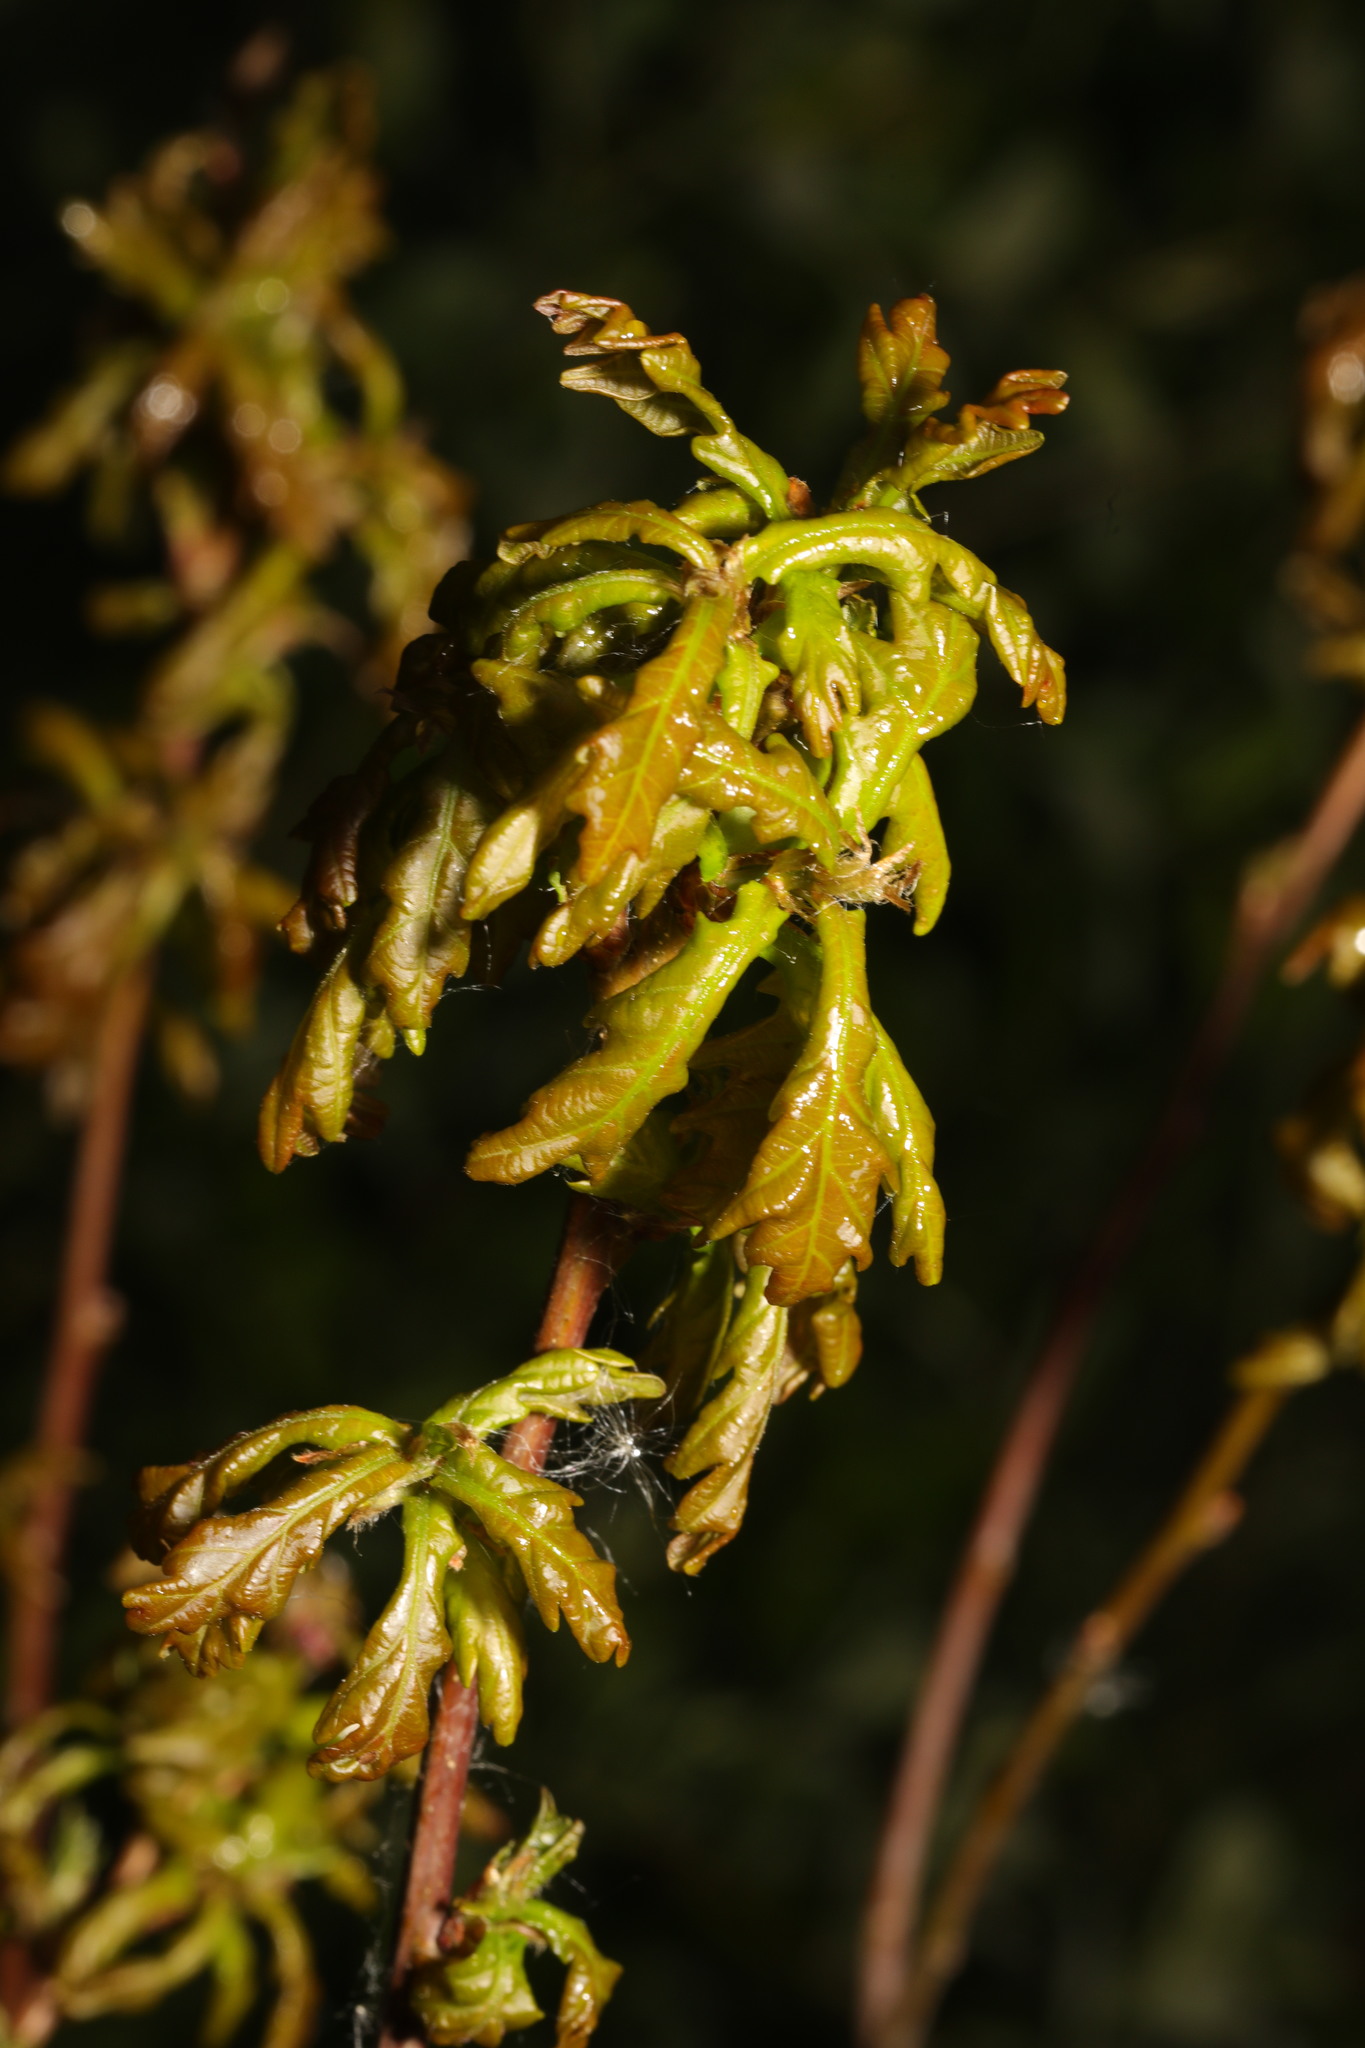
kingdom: Plantae
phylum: Tracheophyta
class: Magnoliopsida
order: Fagales
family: Fagaceae
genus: Quercus
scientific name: Quercus robur
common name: Pedunculate oak
